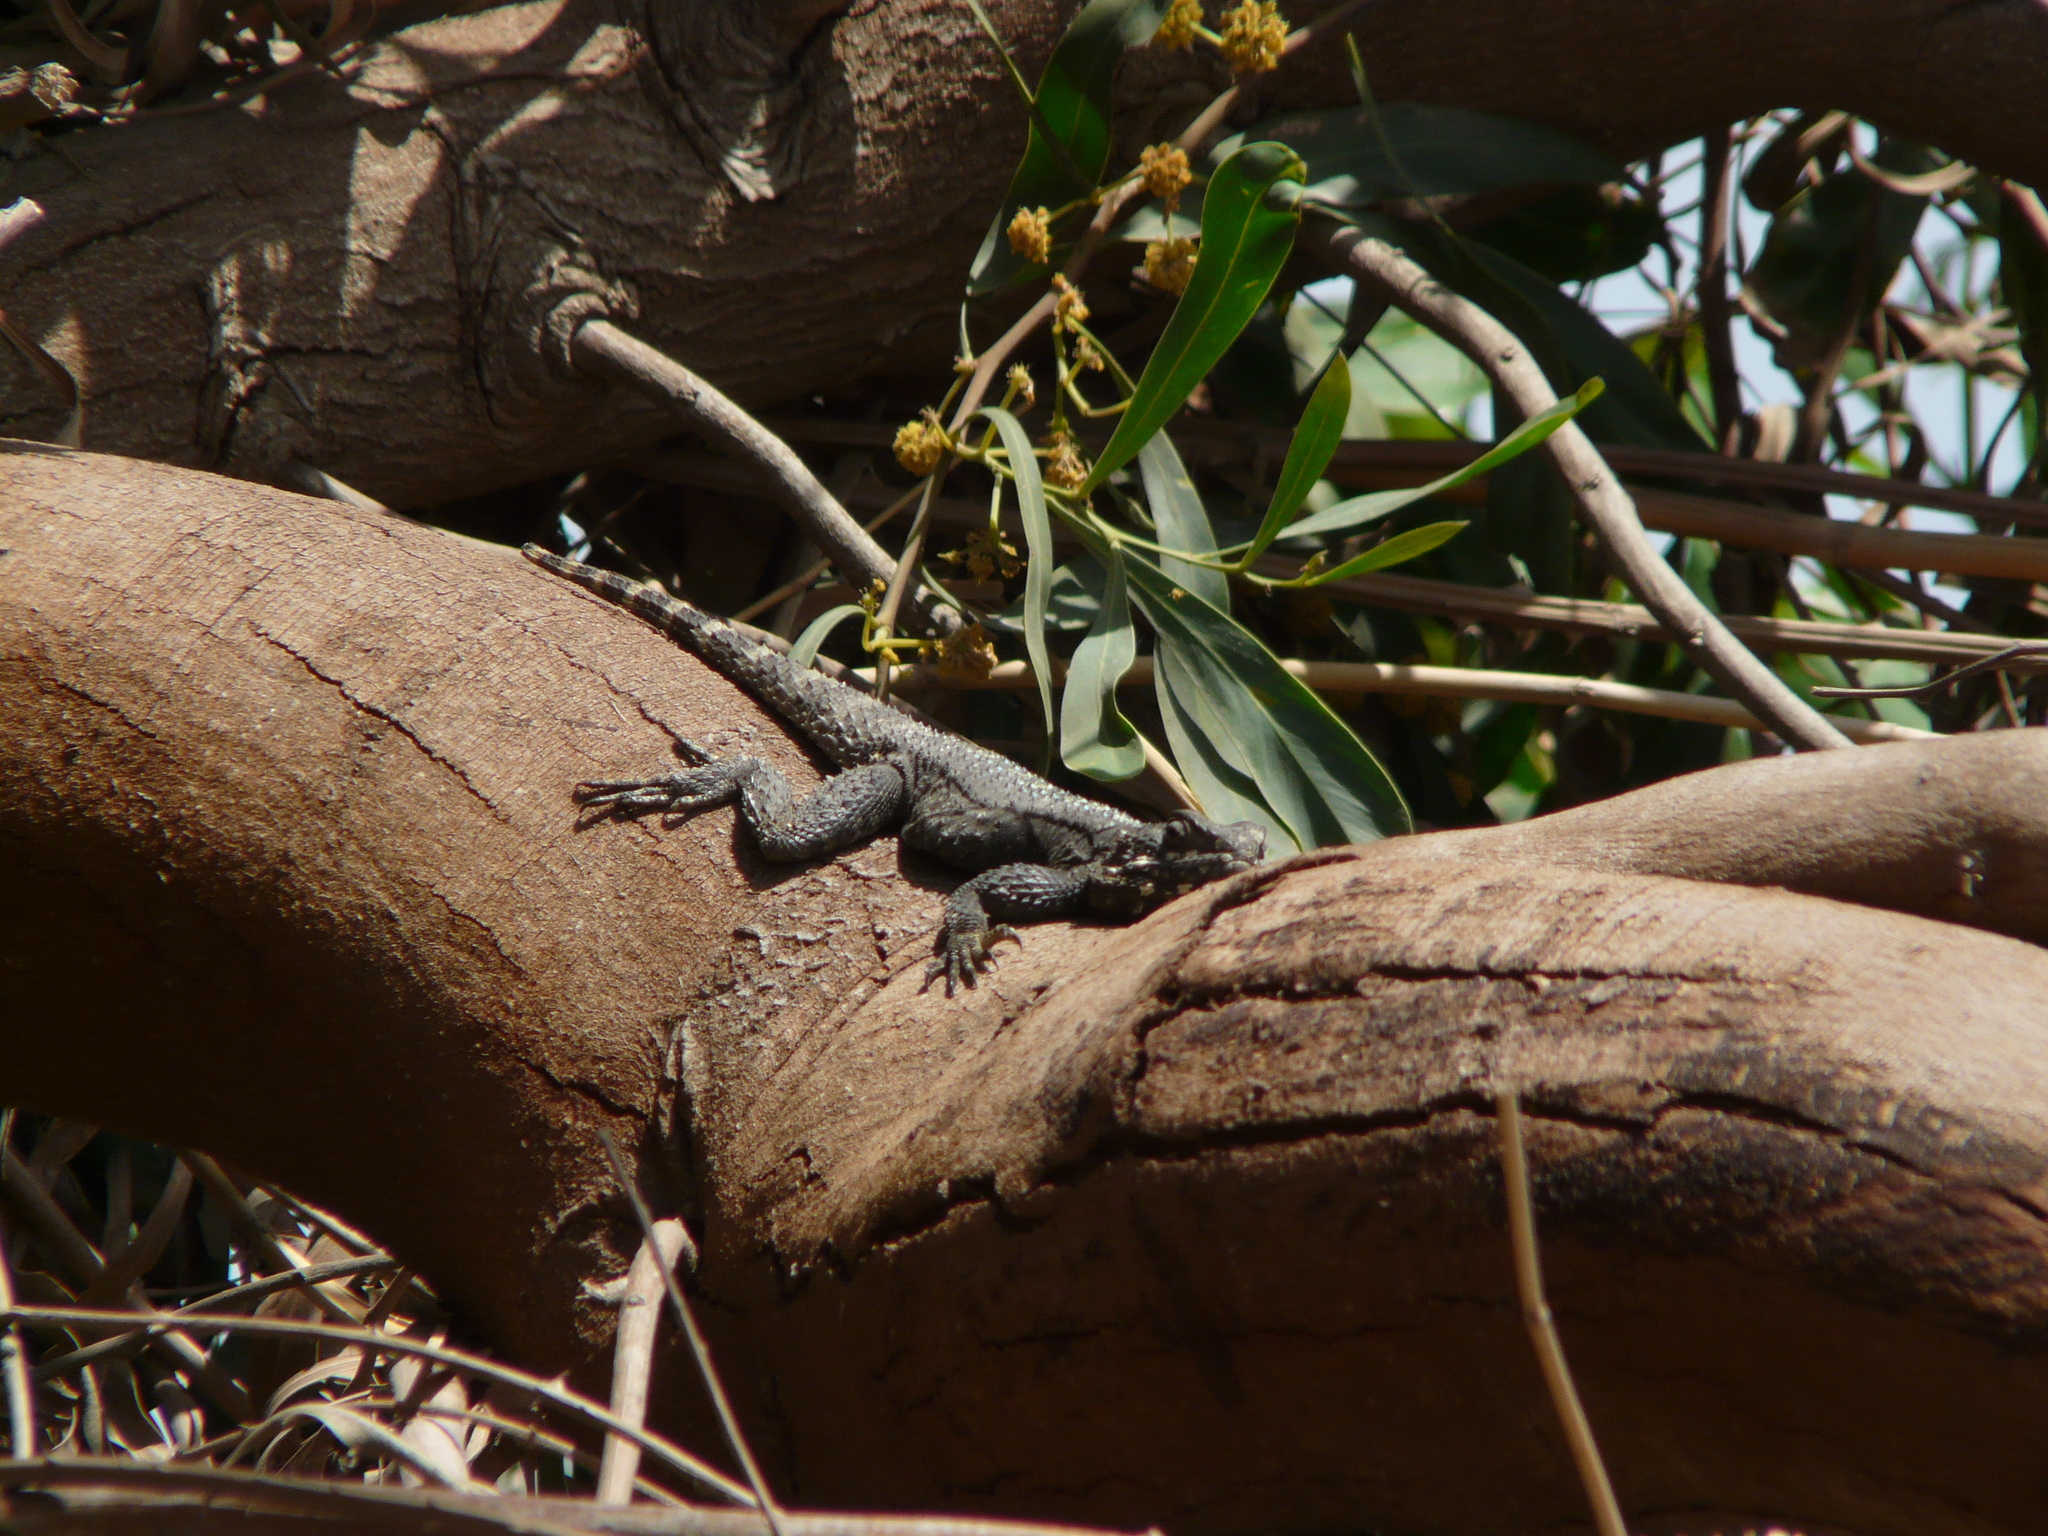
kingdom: Animalia
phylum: Chordata
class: Squamata
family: Agamidae
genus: Laudakia
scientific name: Laudakia vulgaris
